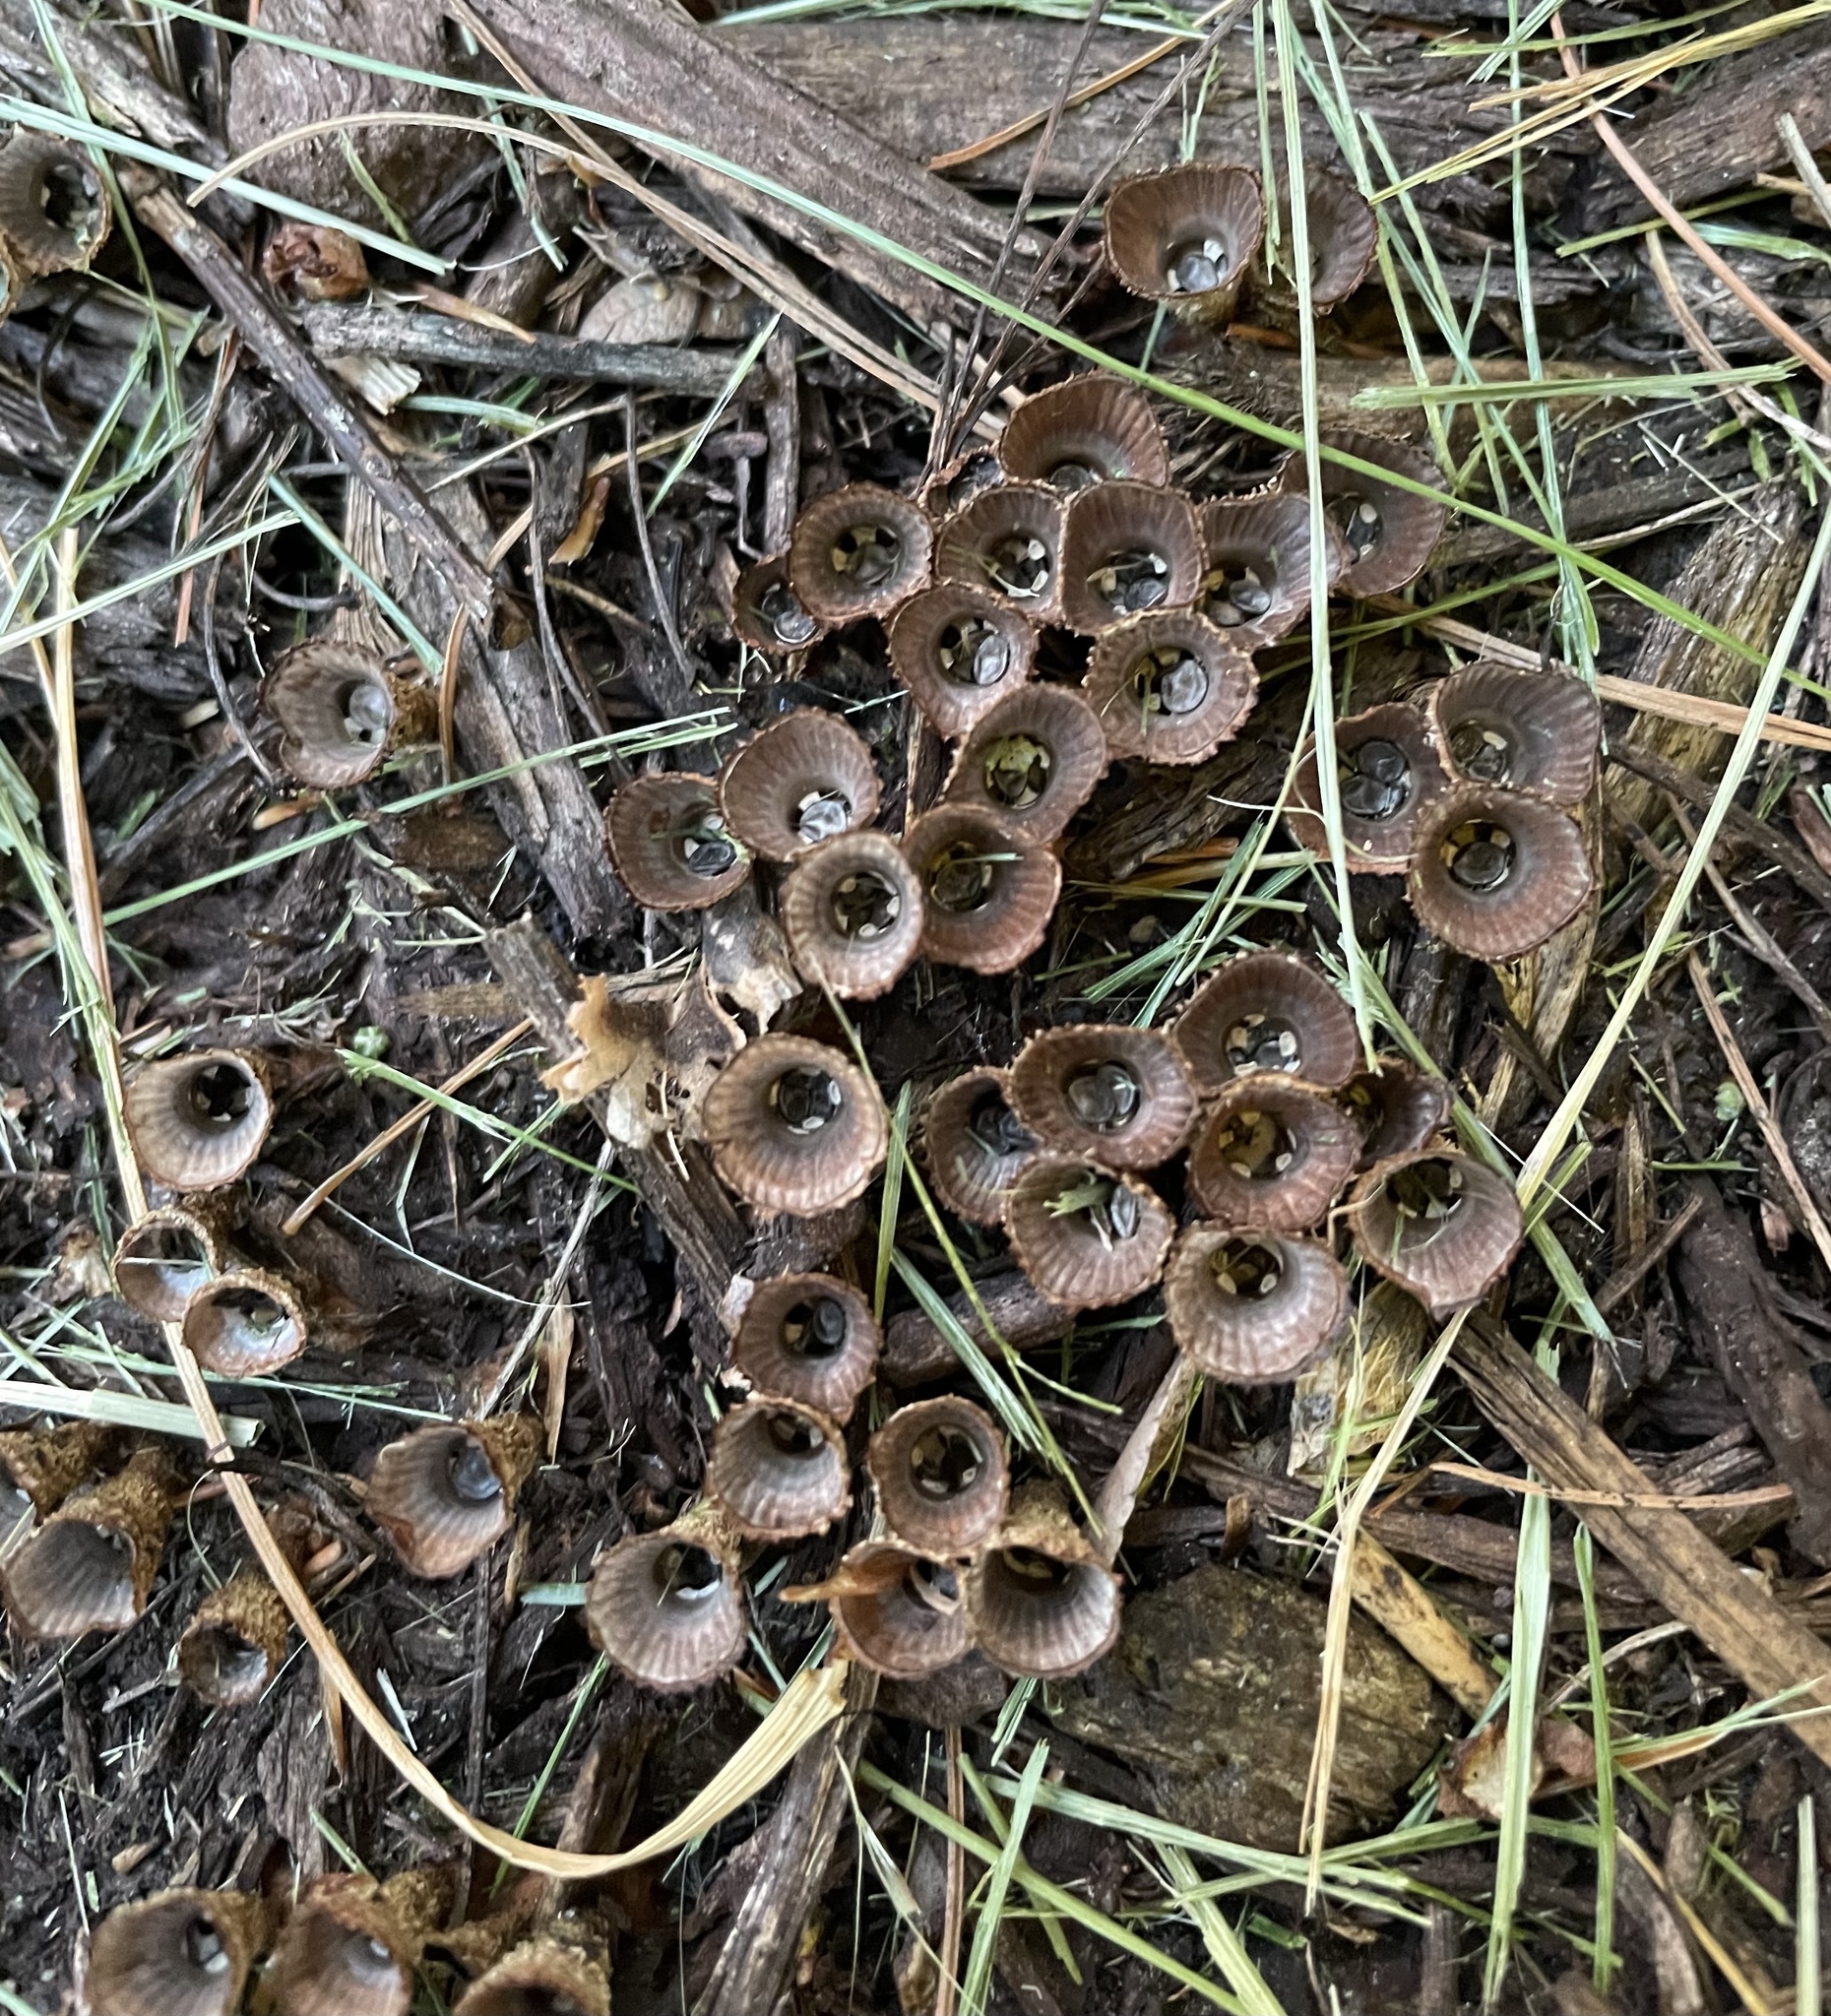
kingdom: Fungi
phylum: Basidiomycota
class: Agaricomycetes
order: Agaricales
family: Agaricaceae
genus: Cyathus
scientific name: Cyathus striatus
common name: Fluted bird's nest
